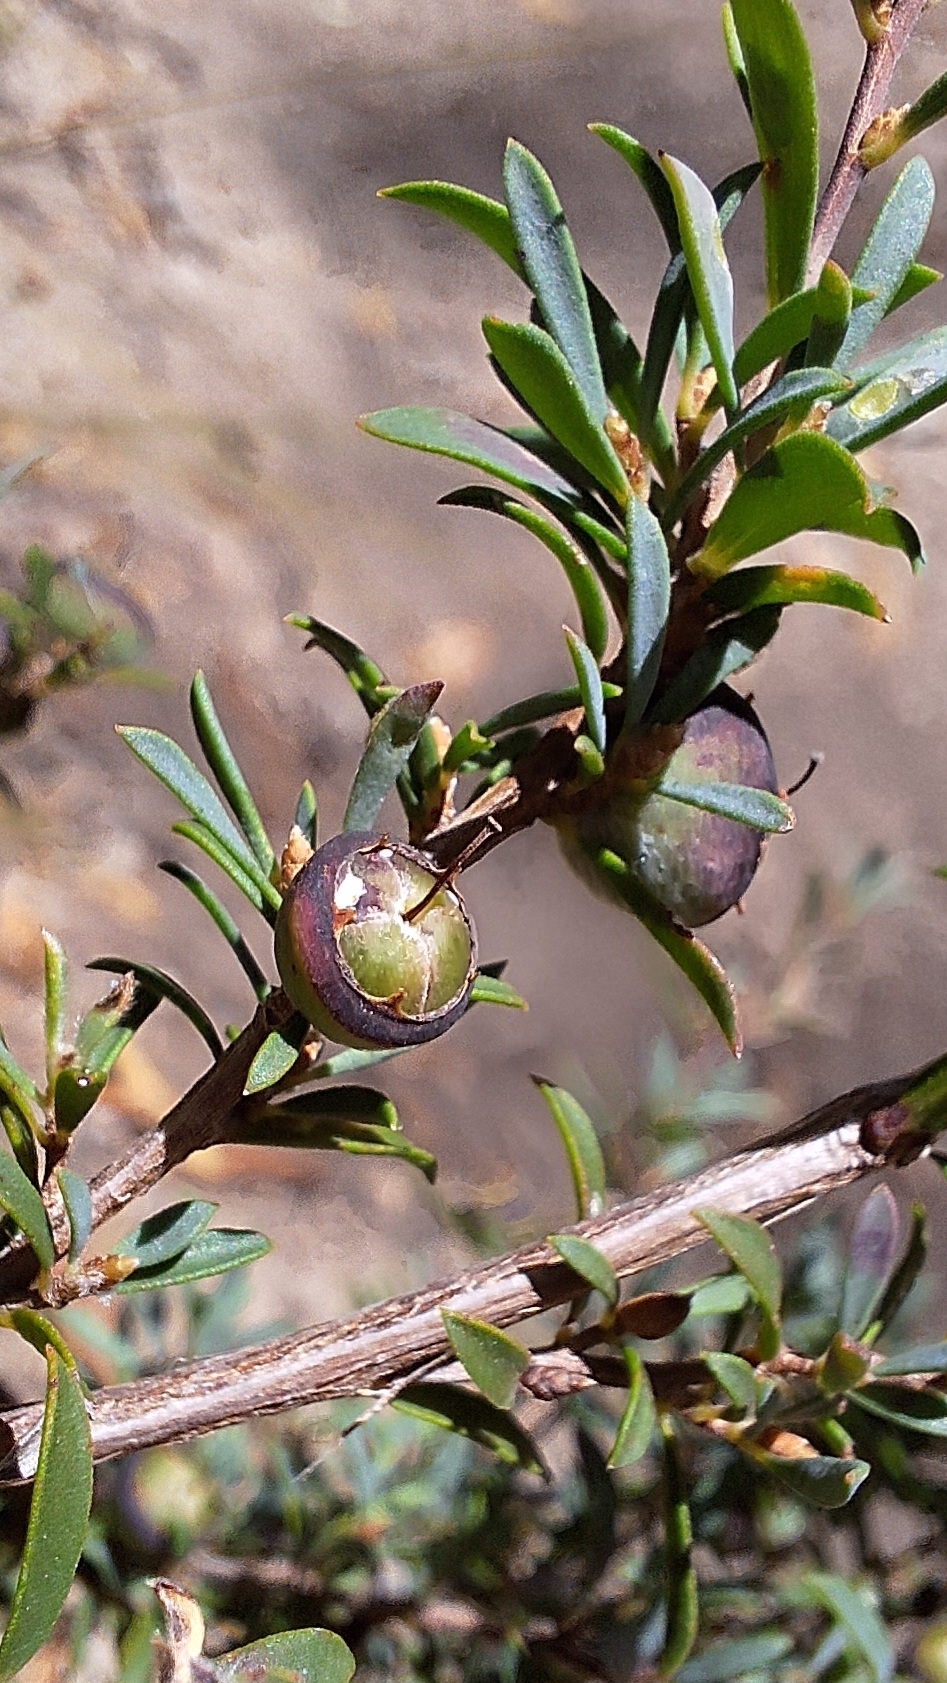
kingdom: Plantae
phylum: Tracheophyta
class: Magnoliopsida
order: Myrtales
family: Myrtaceae
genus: Leptospermum
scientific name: Leptospermum myrsinoides
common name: Heath teatree
